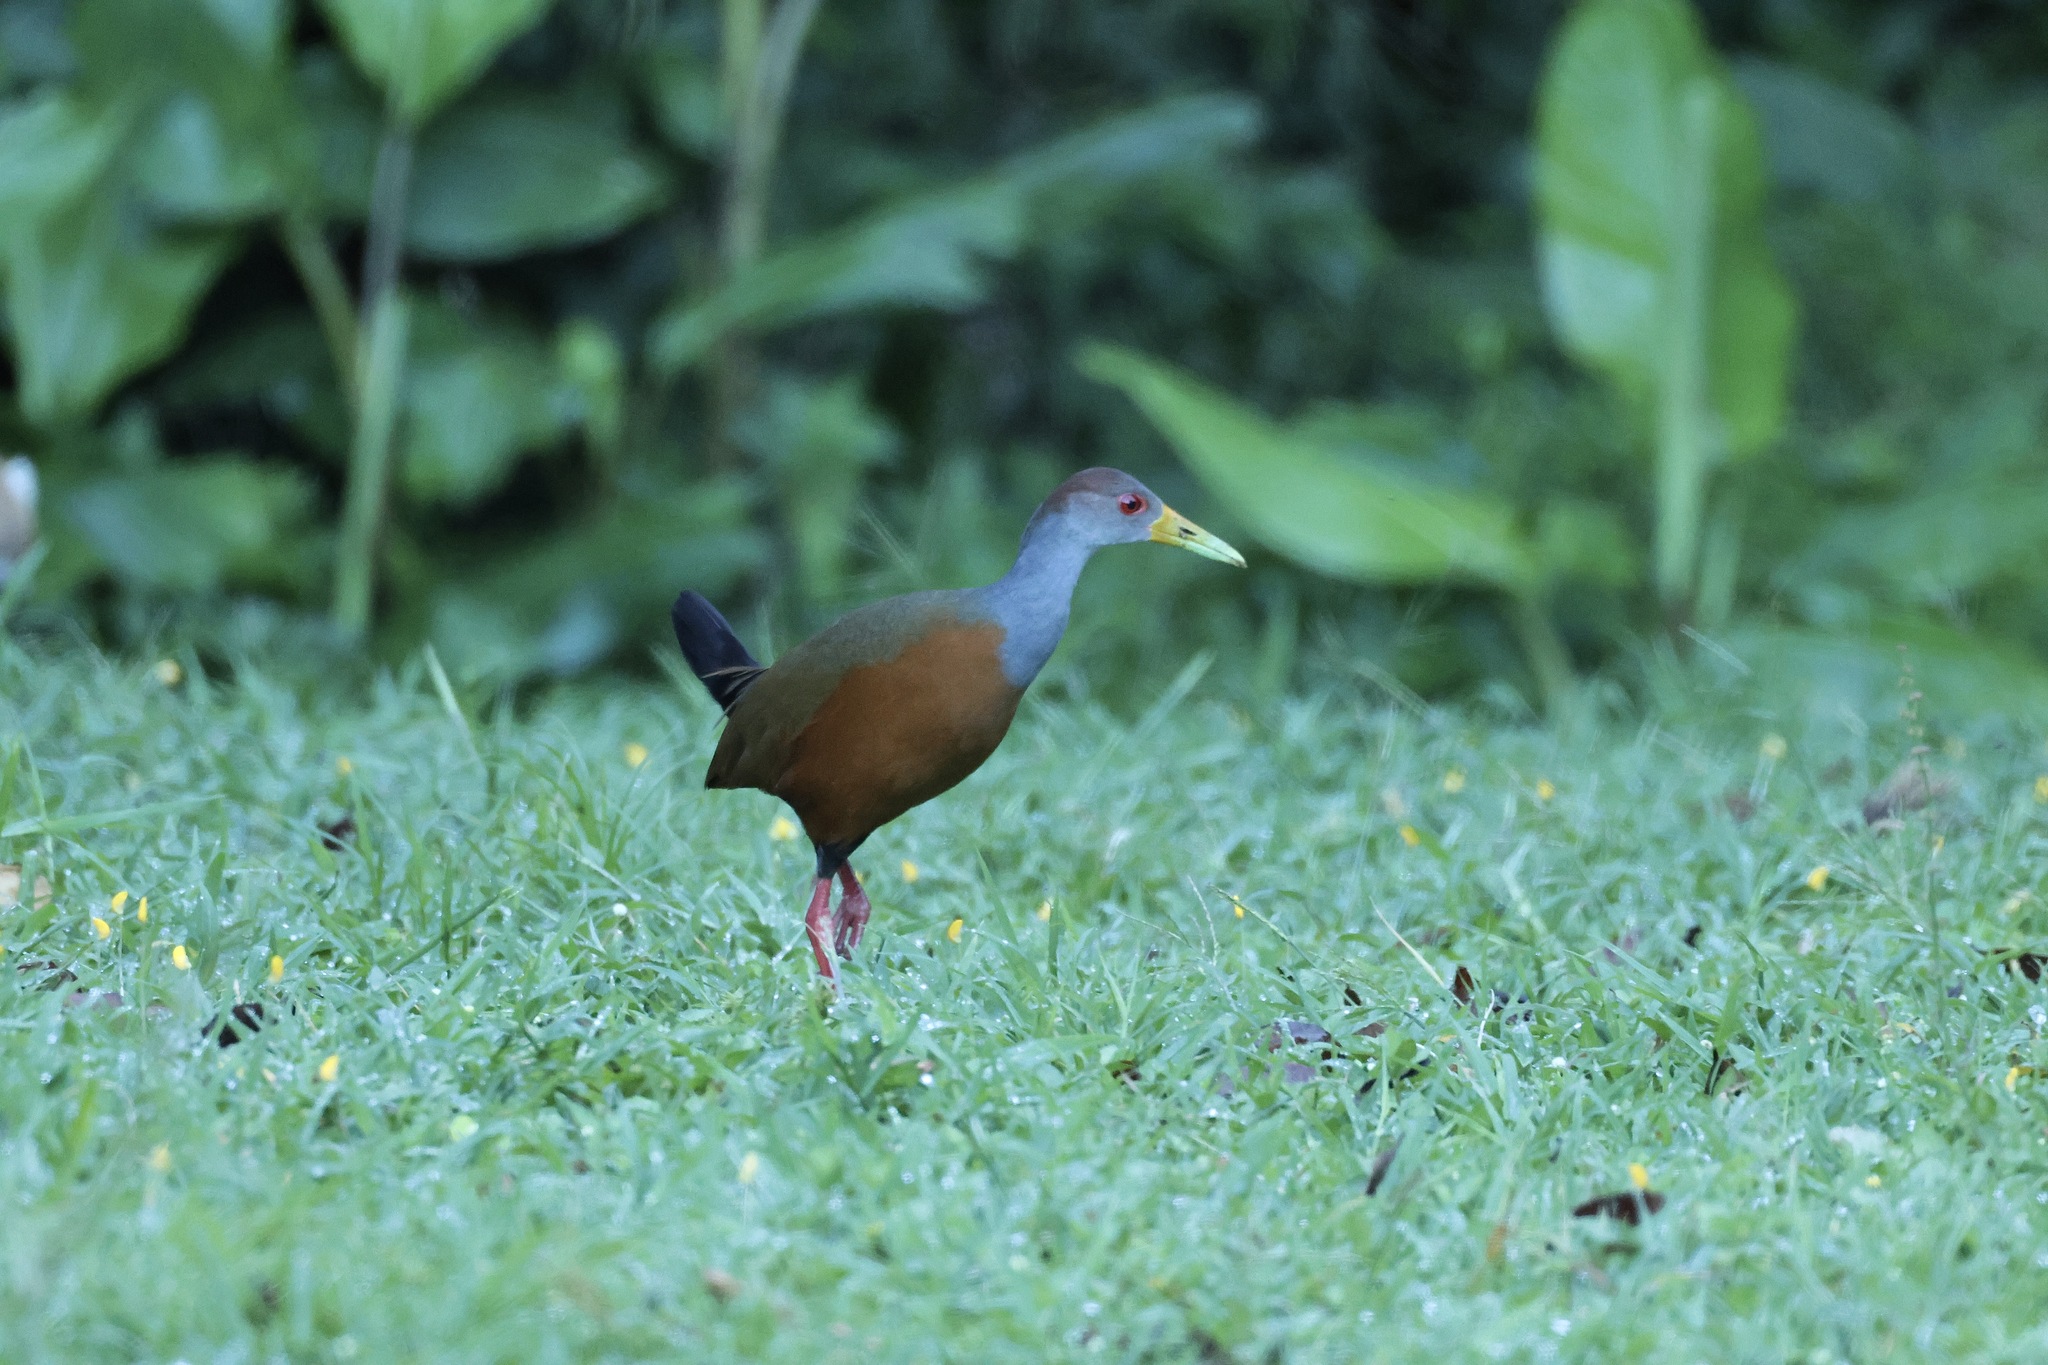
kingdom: Animalia
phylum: Chordata
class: Aves
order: Gruiformes
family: Rallidae
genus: Aramides
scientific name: Aramides cajanea
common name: Gray-necked wood-rail
